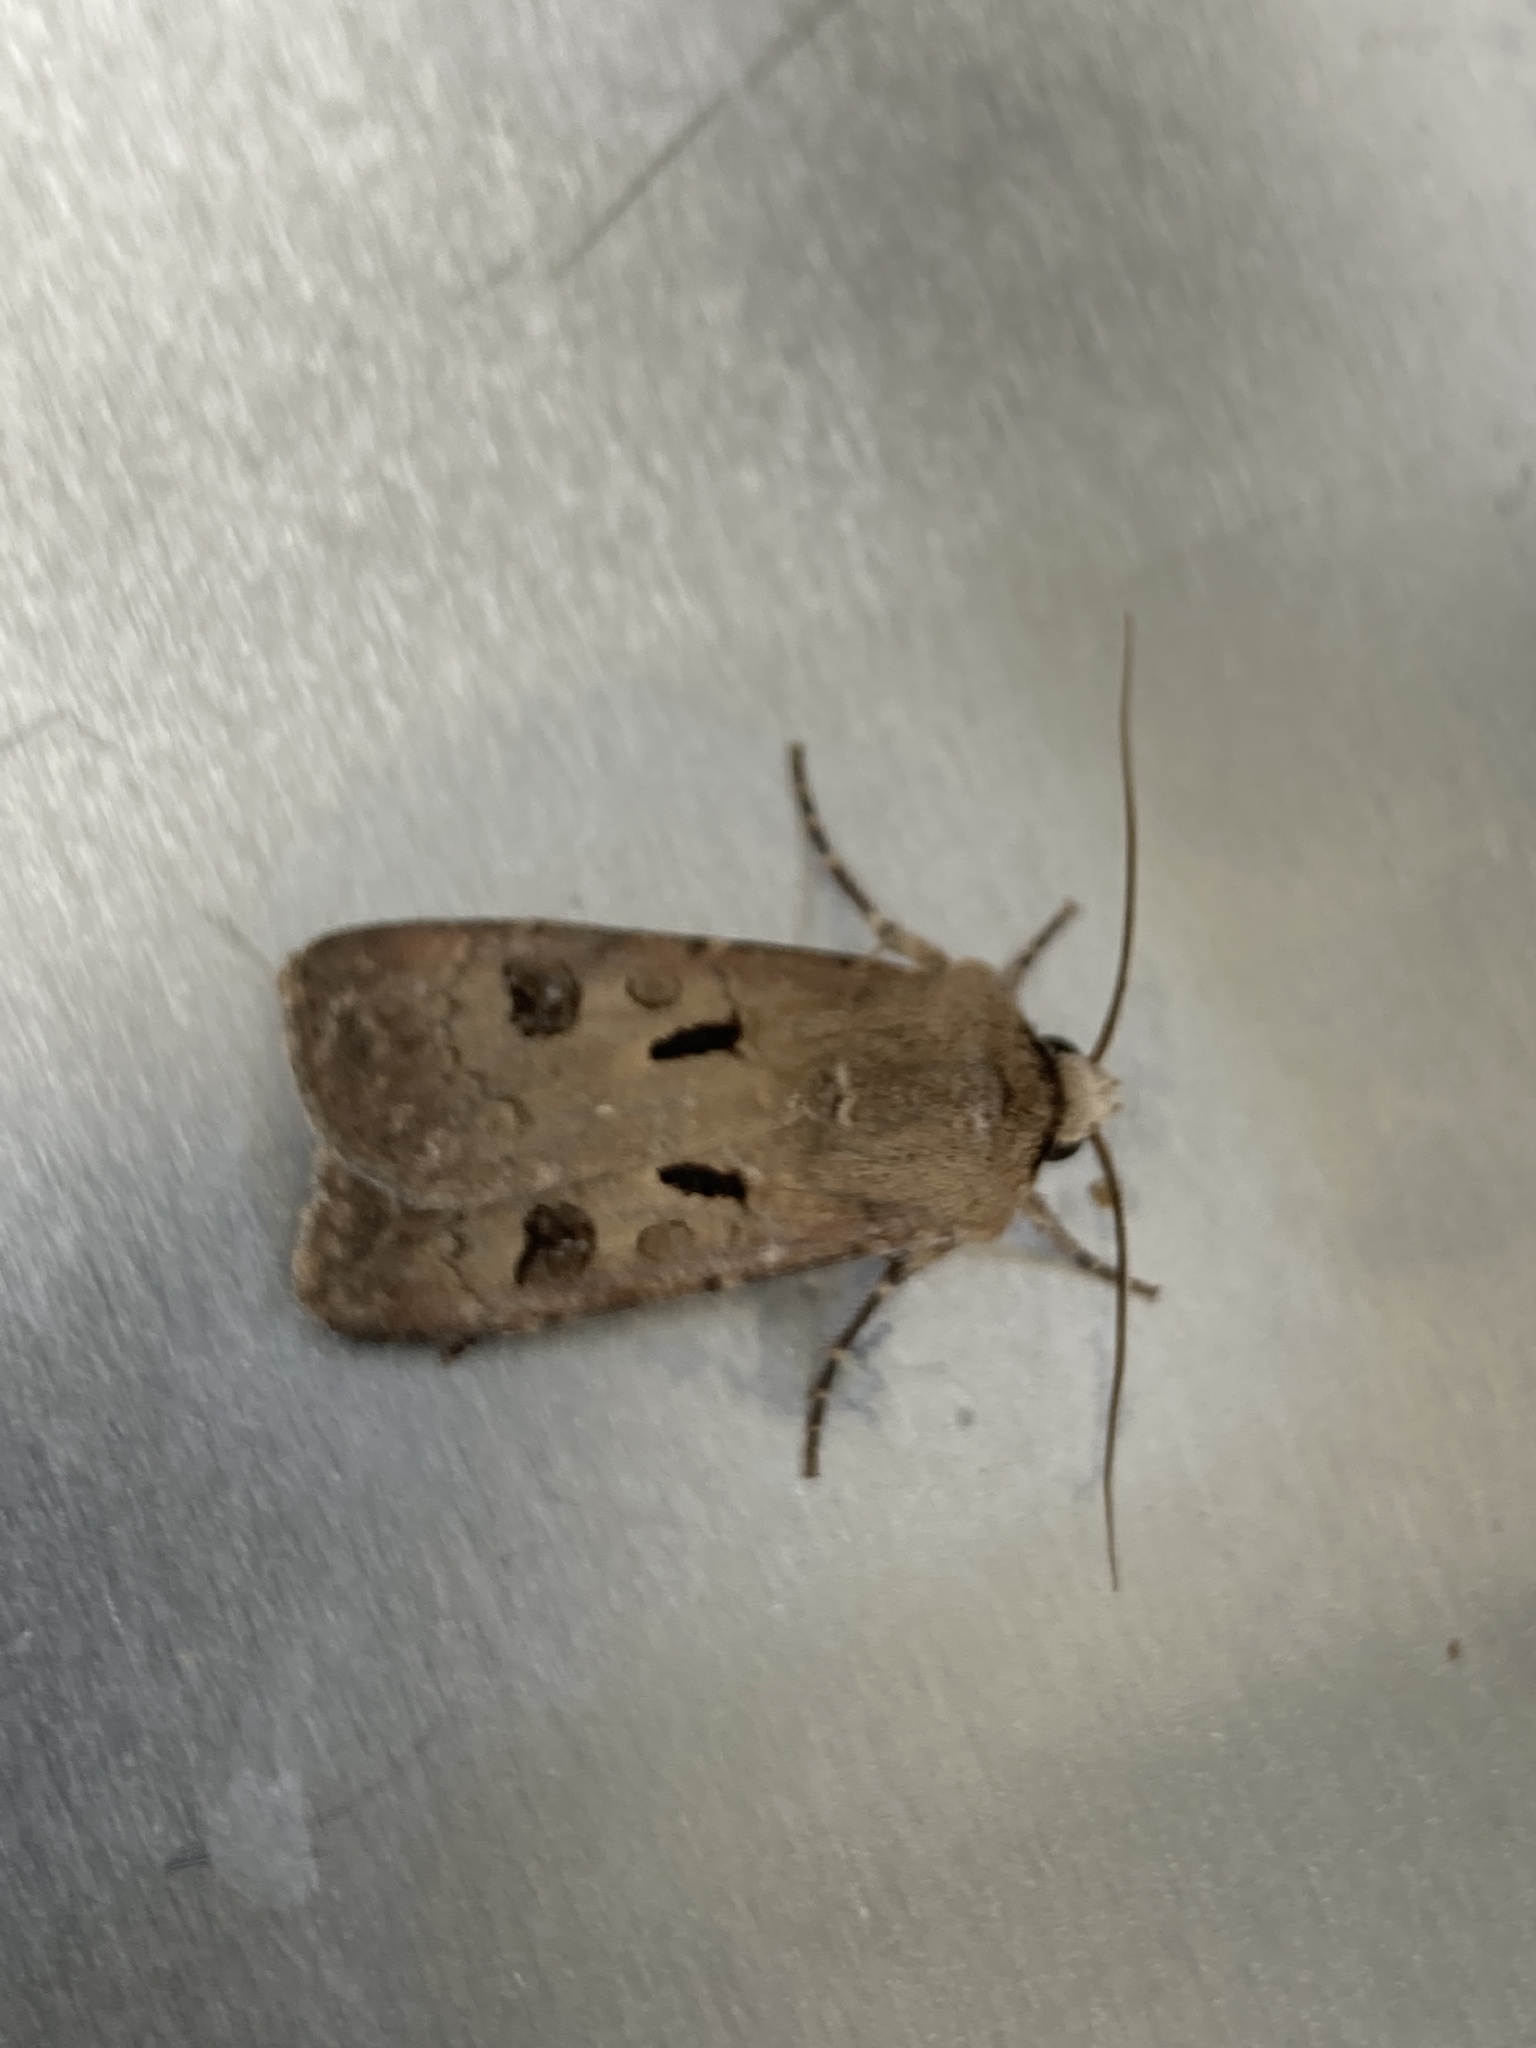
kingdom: Animalia
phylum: Arthropoda
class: Insecta
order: Lepidoptera
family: Noctuidae
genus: Agrotis
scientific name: Agrotis exclamationis
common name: Heart and dart
